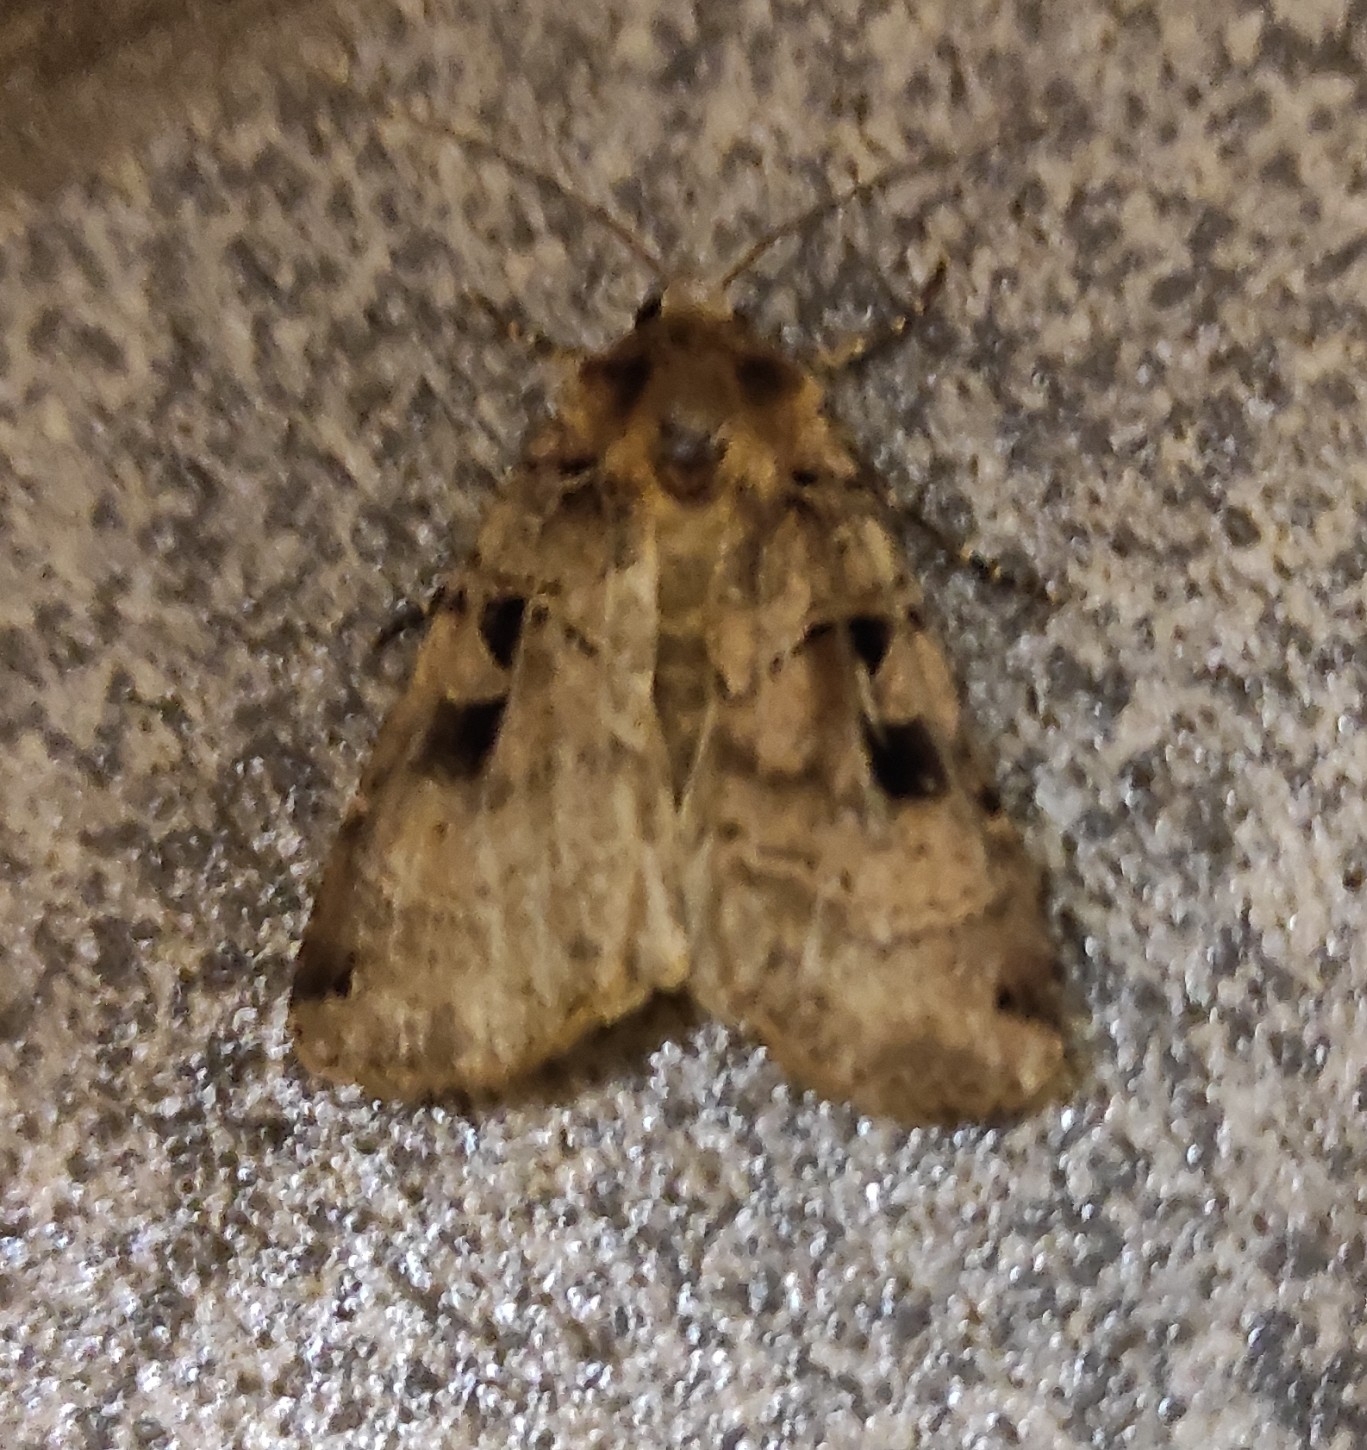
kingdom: Animalia
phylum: Arthropoda
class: Insecta
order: Lepidoptera
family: Noctuidae
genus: Xestia
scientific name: Xestia triangulum
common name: Double square-spot
